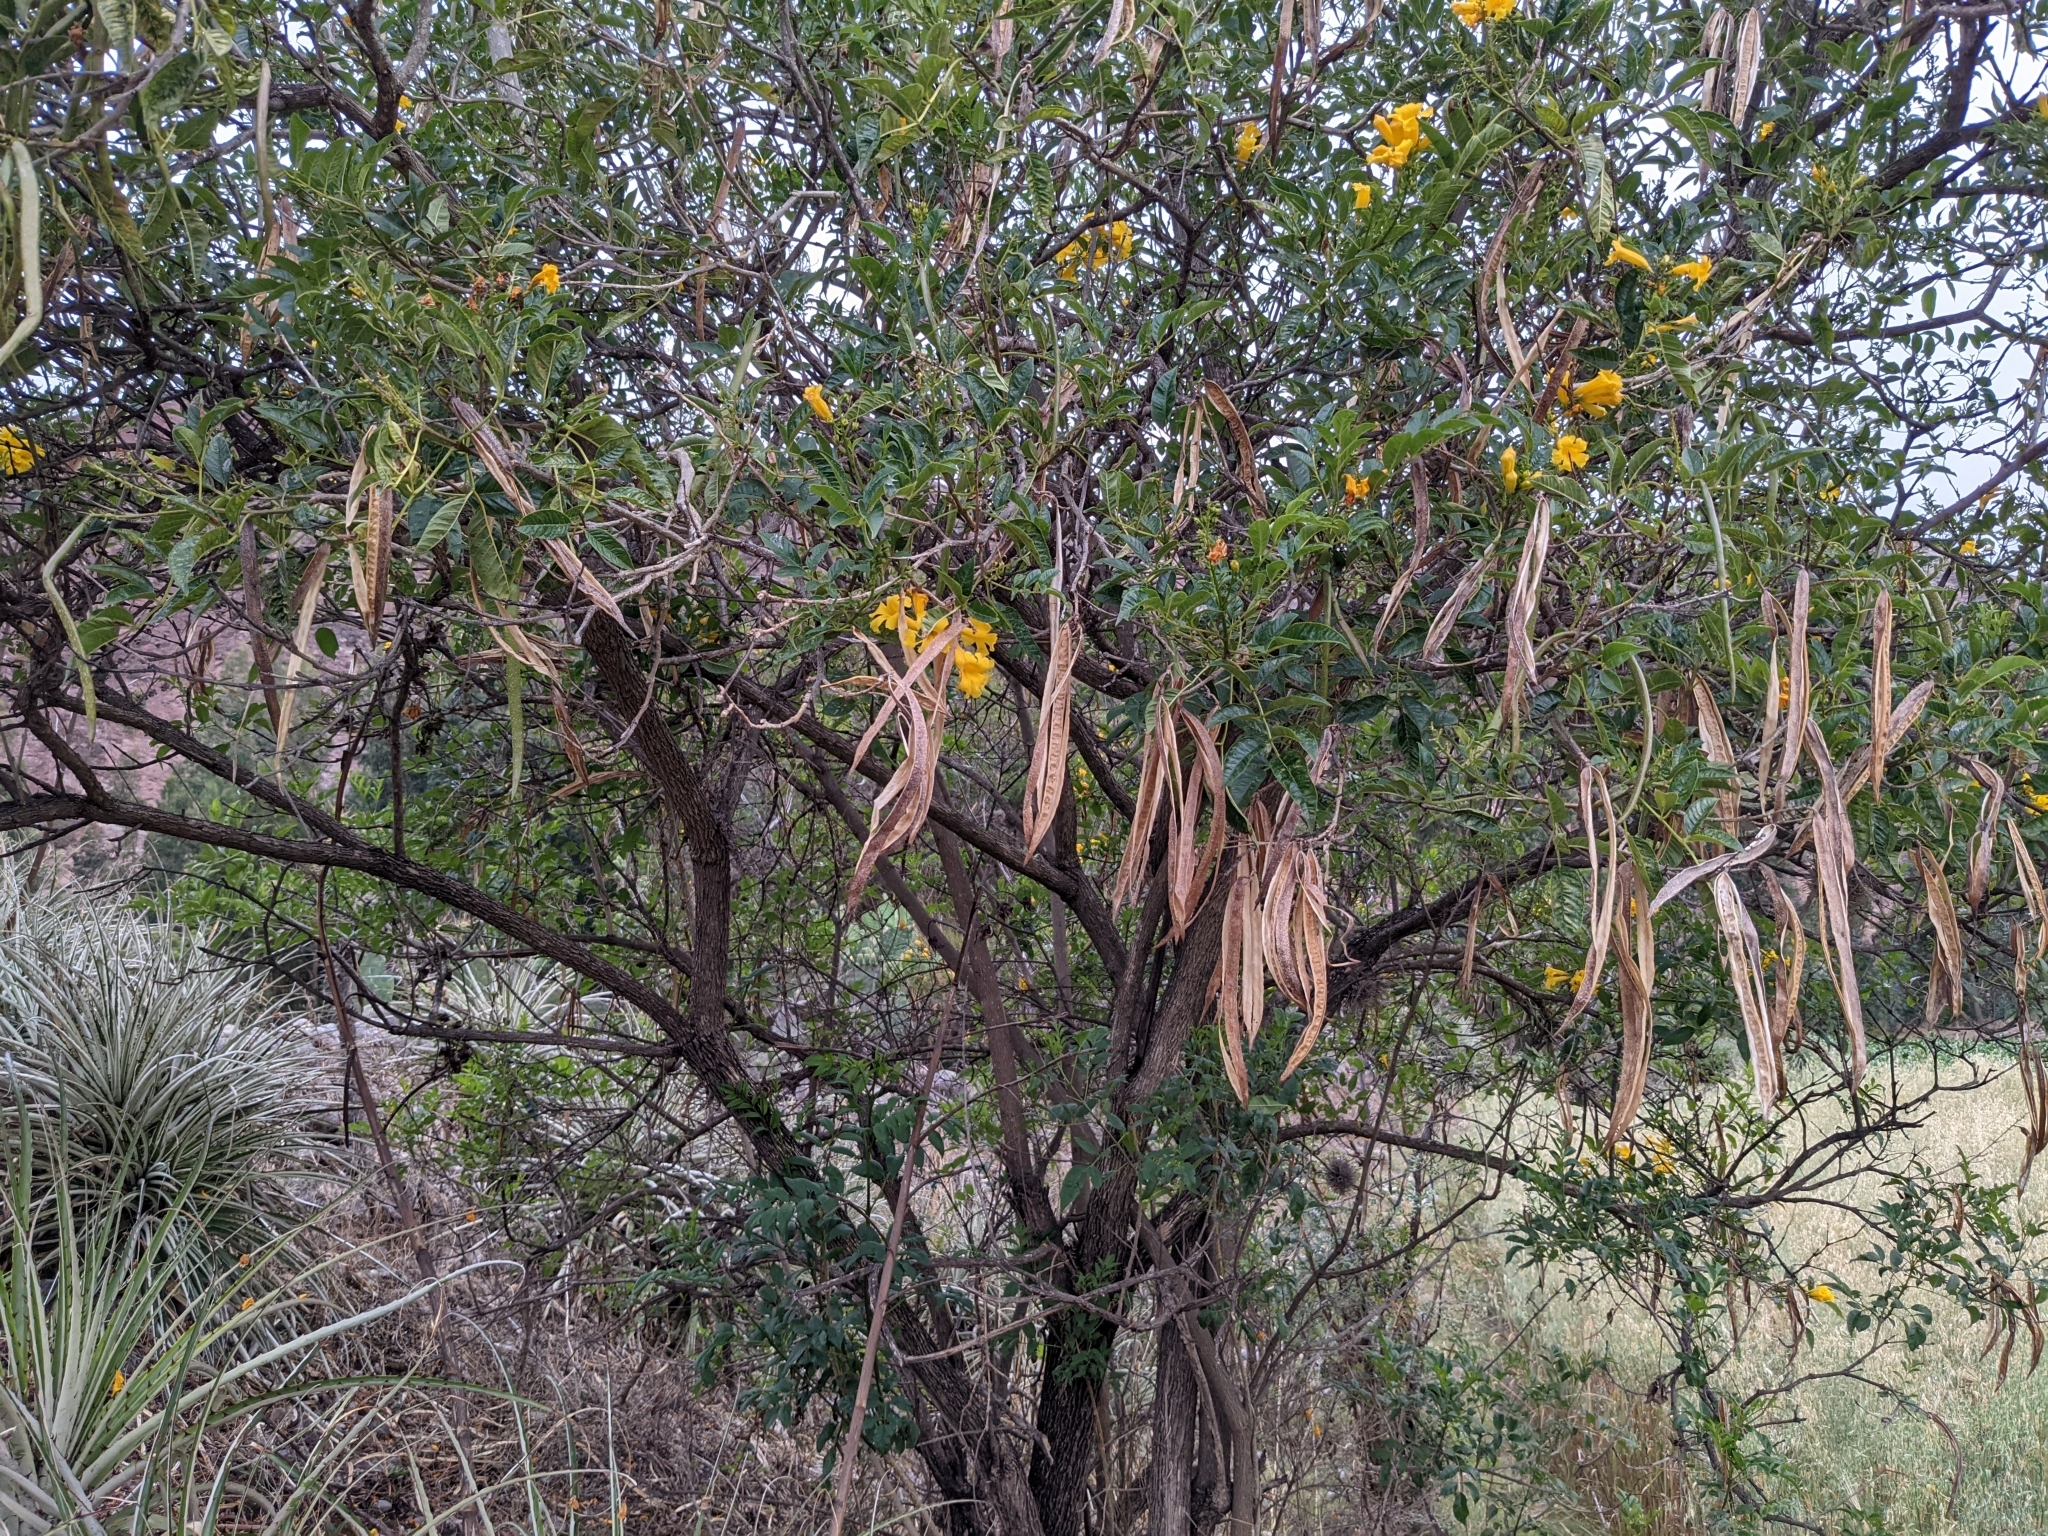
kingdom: Plantae
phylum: Tracheophyta
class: Magnoliopsida
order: Lamiales
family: Bignoniaceae
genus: Tecoma
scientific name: Tecoma stans
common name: Yellow trumpetbush
